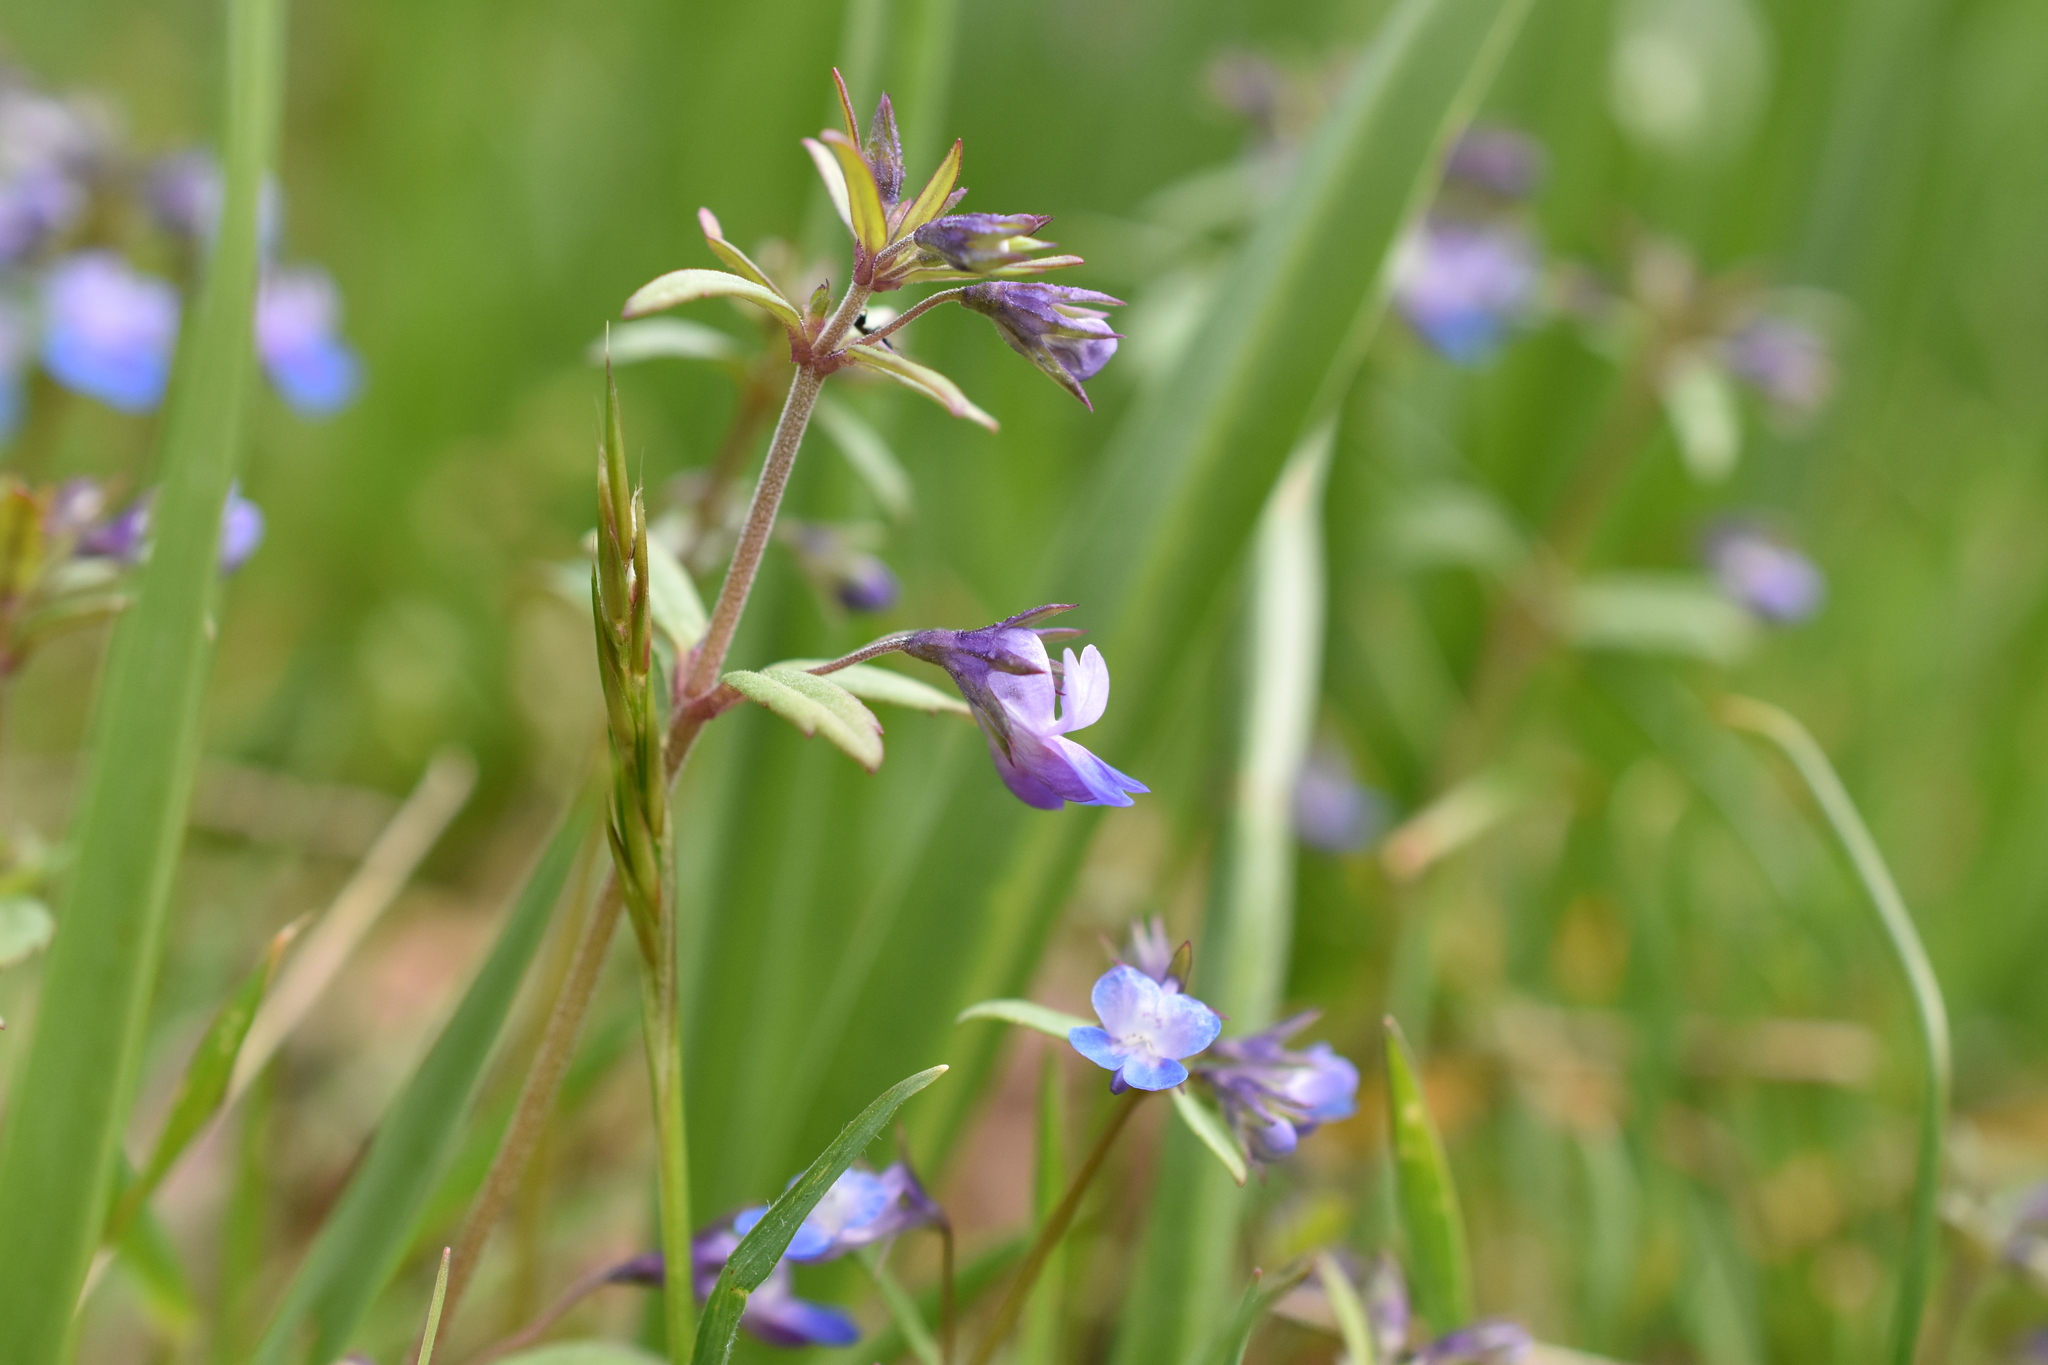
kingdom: Plantae
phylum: Tracheophyta
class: Magnoliopsida
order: Lamiales
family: Plantaginaceae
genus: Collinsia
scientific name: Collinsia parviflora
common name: Blue-lips
